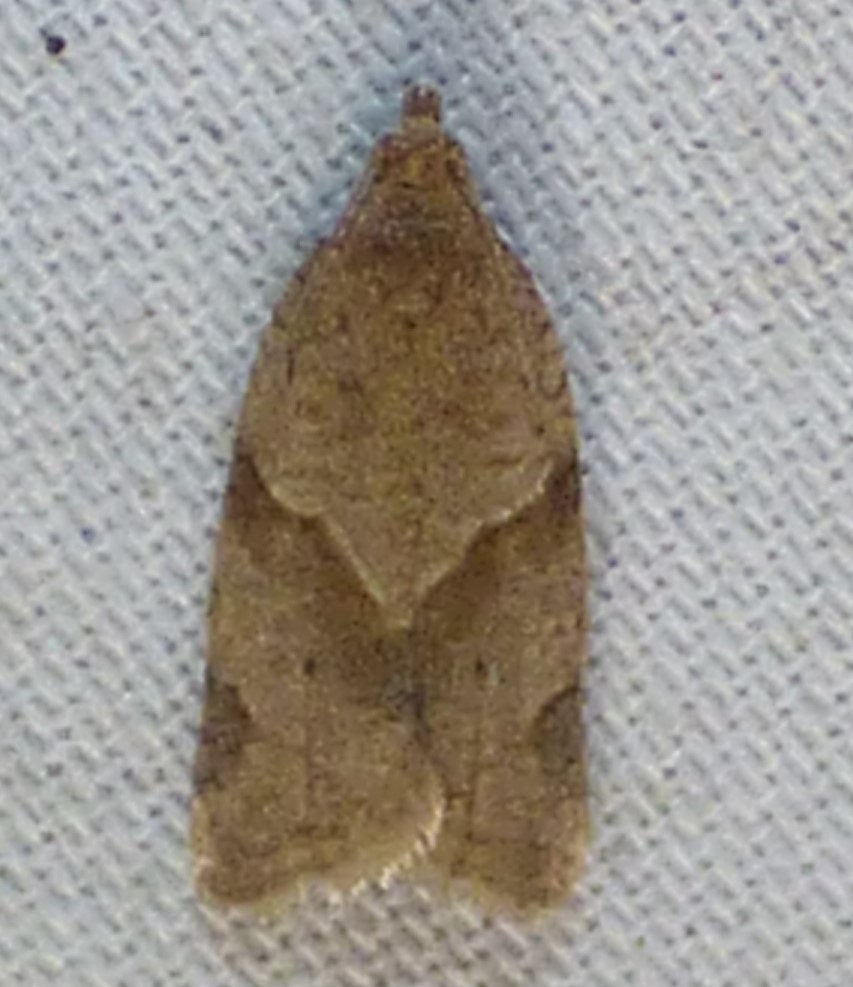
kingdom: Animalia
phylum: Arthropoda
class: Insecta
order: Lepidoptera
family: Tortricidae
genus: Clepsis
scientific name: Clepsis peritana
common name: Garden tortrix
